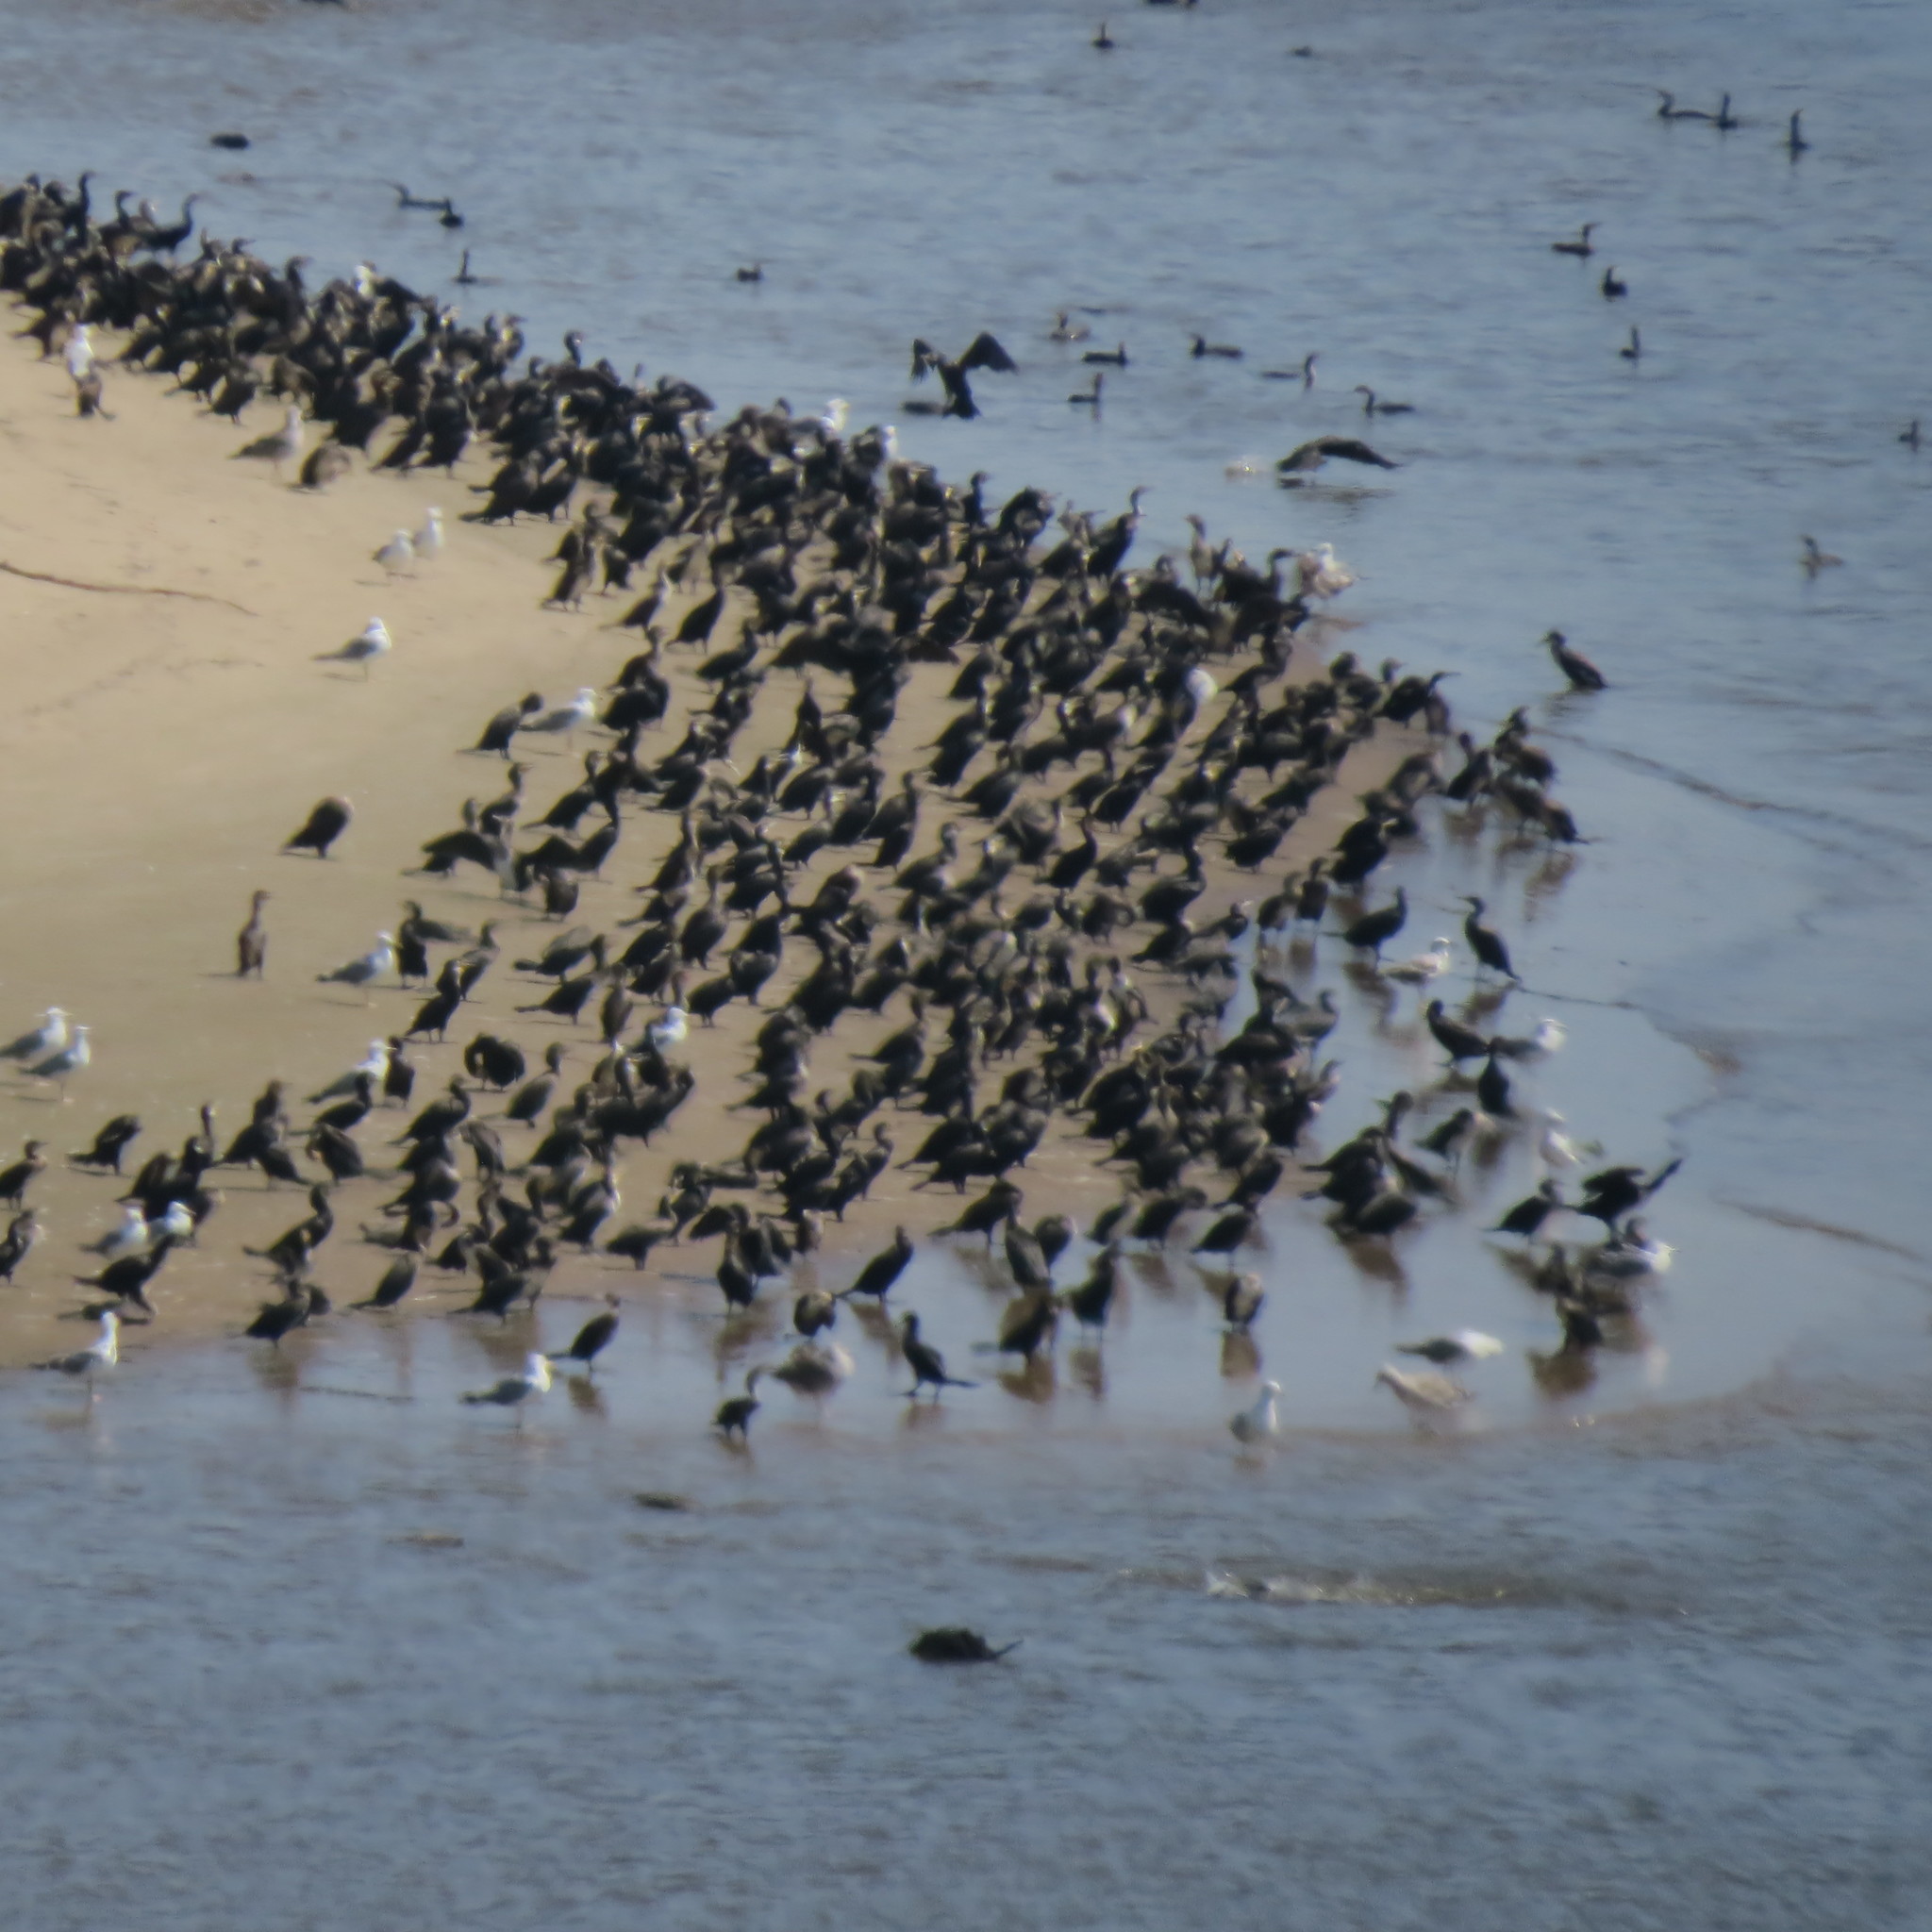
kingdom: Animalia
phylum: Chordata
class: Aves
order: Suliformes
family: Phalacrocoracidae
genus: Phalacrocorax
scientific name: Phalacrocorax carbo
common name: Great cormorant
